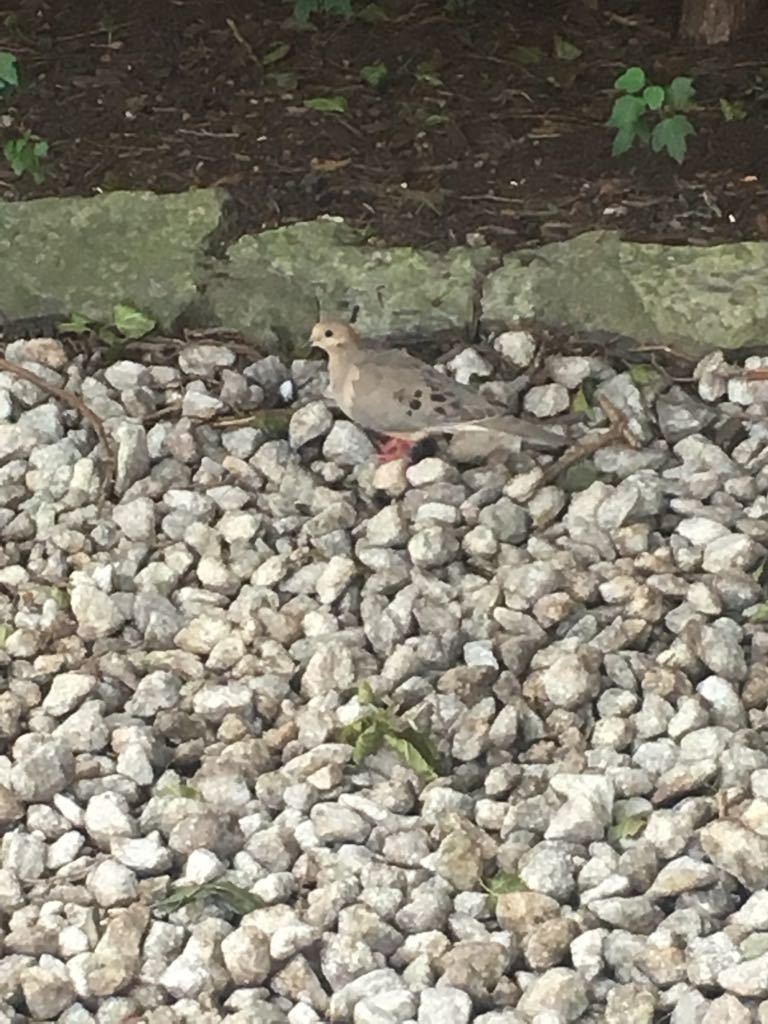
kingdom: Animalia
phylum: Chordata
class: Aves
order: Columbiformes
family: Columbidae
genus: Zenaida
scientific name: Zenaida macroura
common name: Mourning dove
